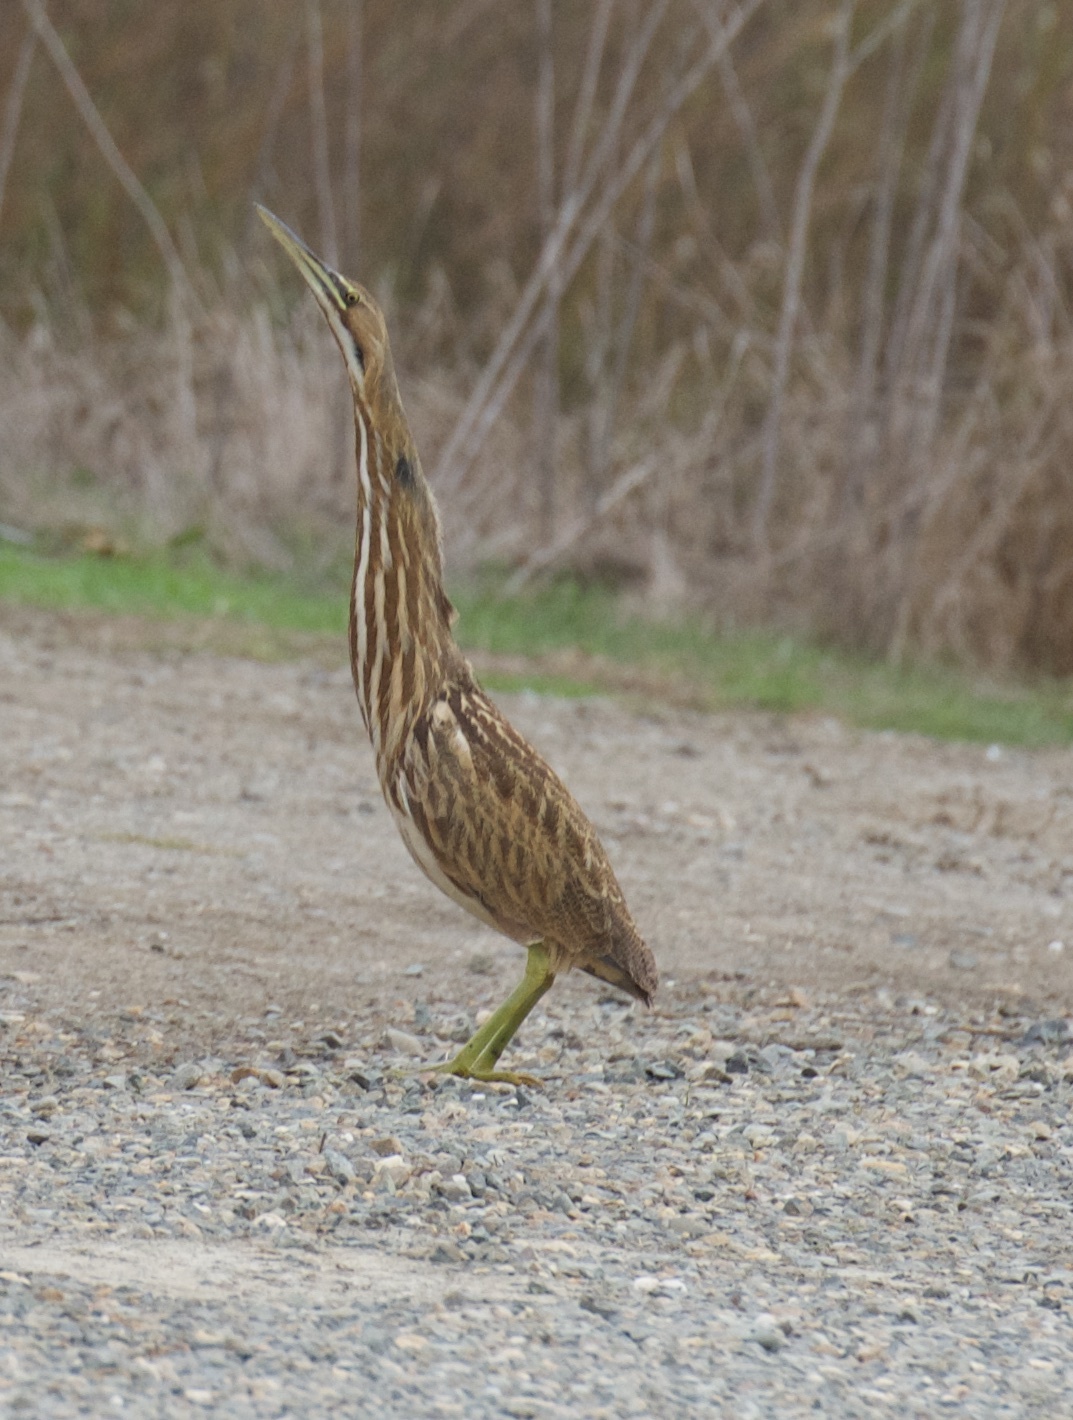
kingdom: Animalia
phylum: Chordata
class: Aves
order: Pelecaniformes
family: Ardeidae
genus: Botaurus
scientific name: Botaurus lentiginosus
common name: American bittern
